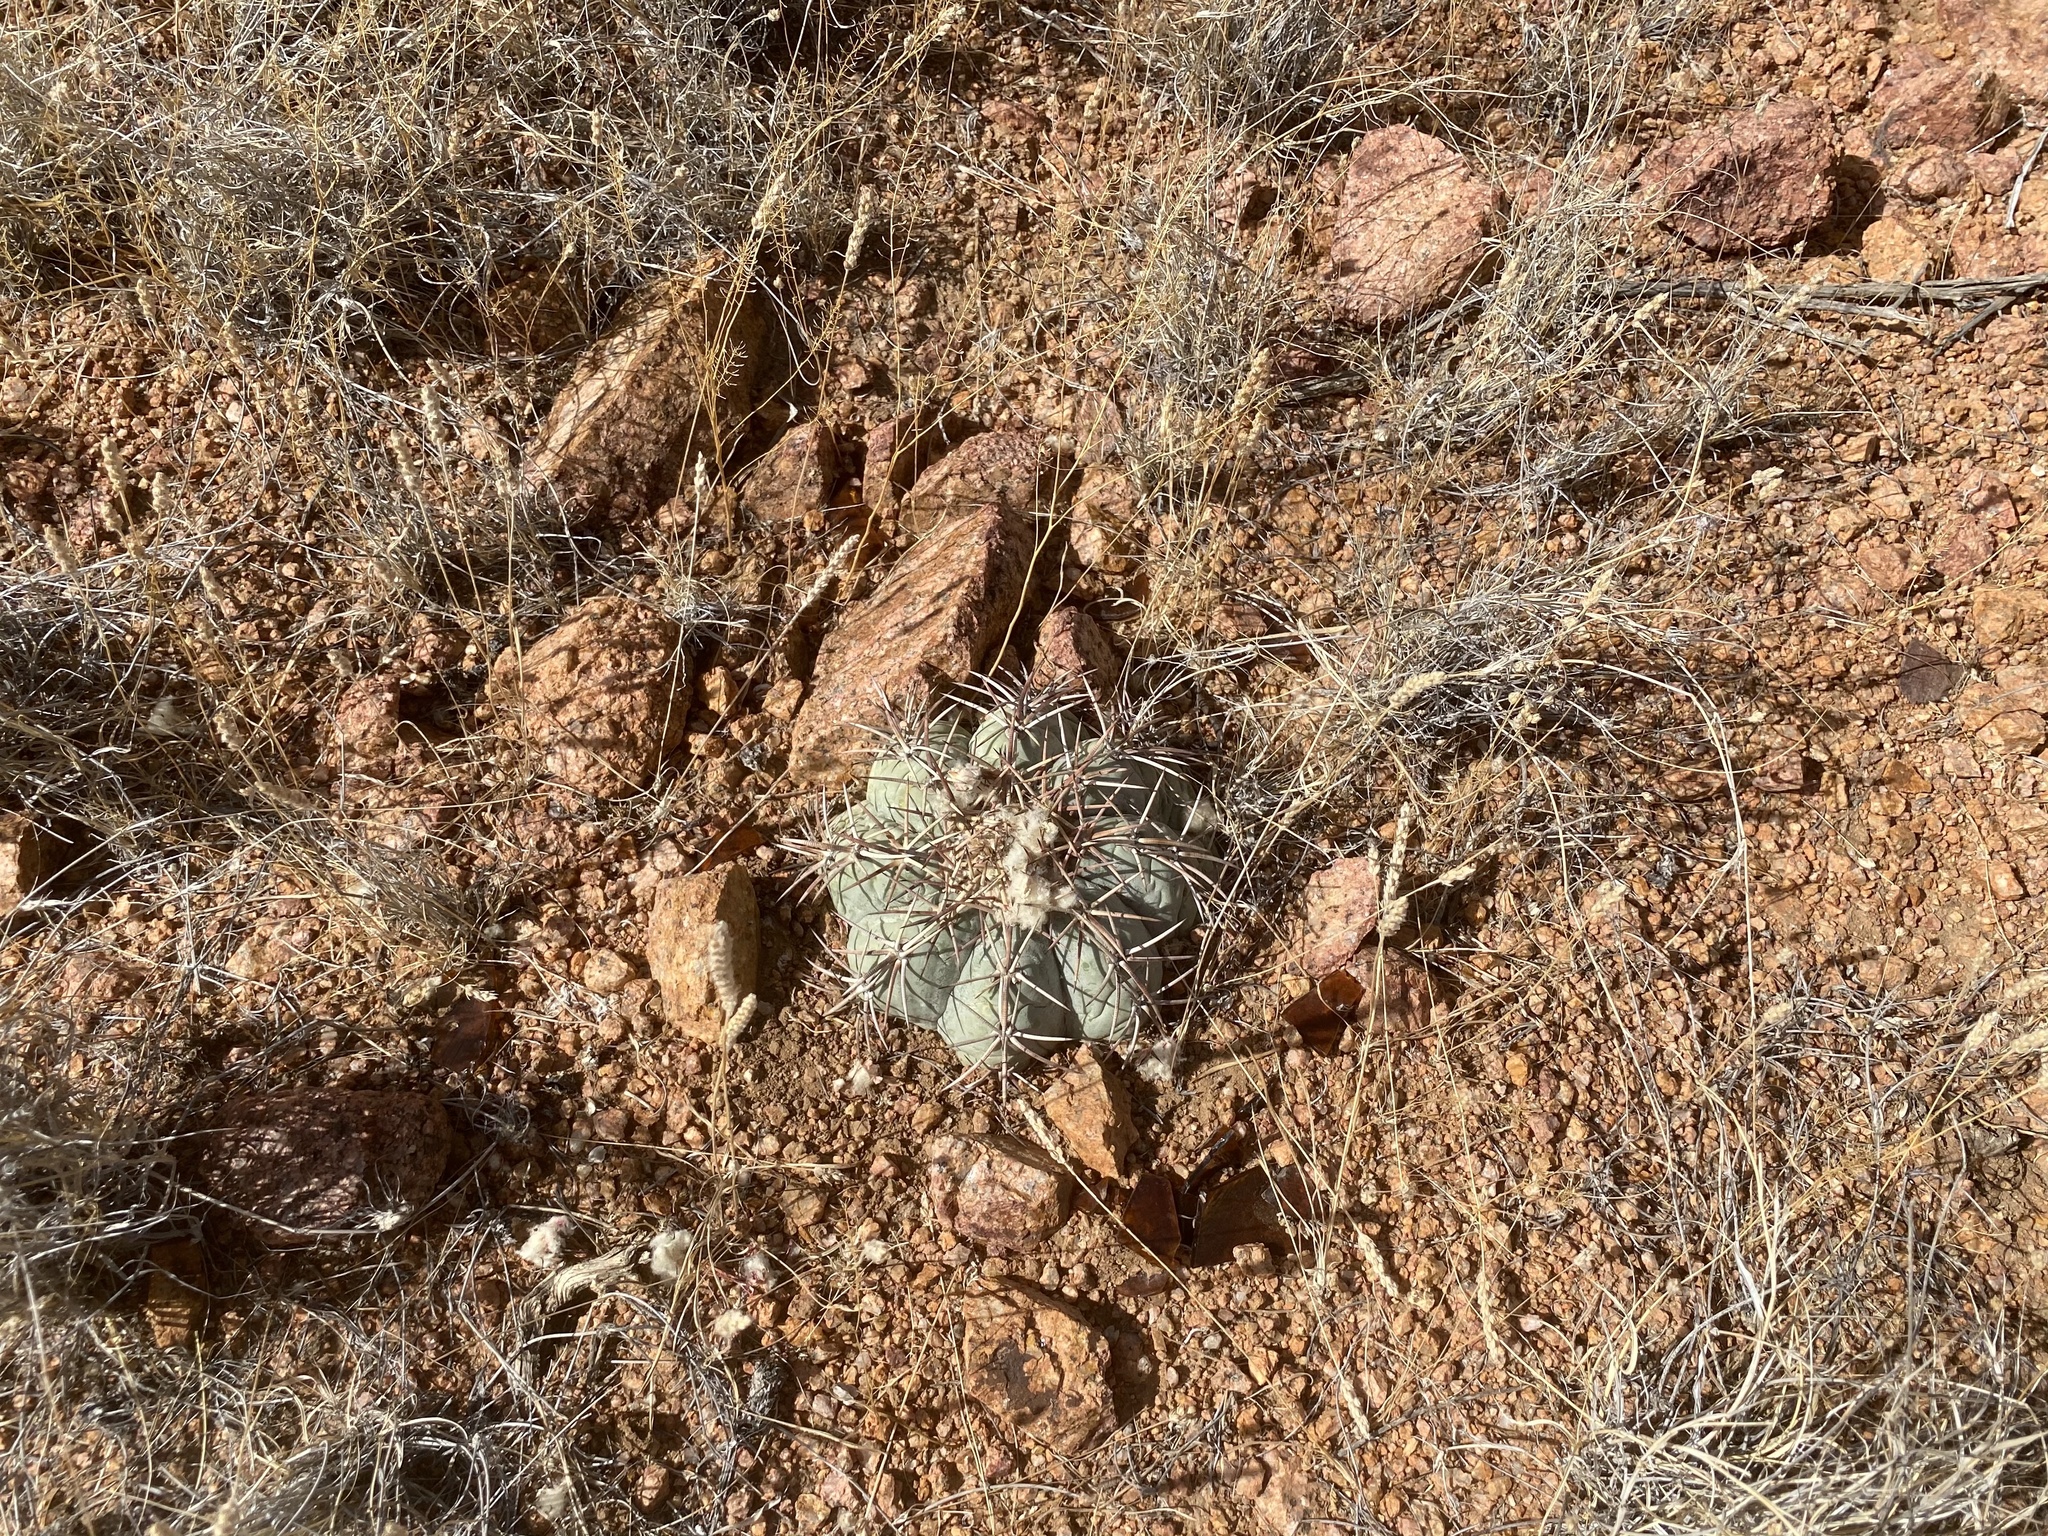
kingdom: Plantae
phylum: Tracheophyta
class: Magnoliopsida
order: Caryophyllales
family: Cactaceae
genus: Echinocactus
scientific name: Echinocactus horizonthalonius
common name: Devilshead
